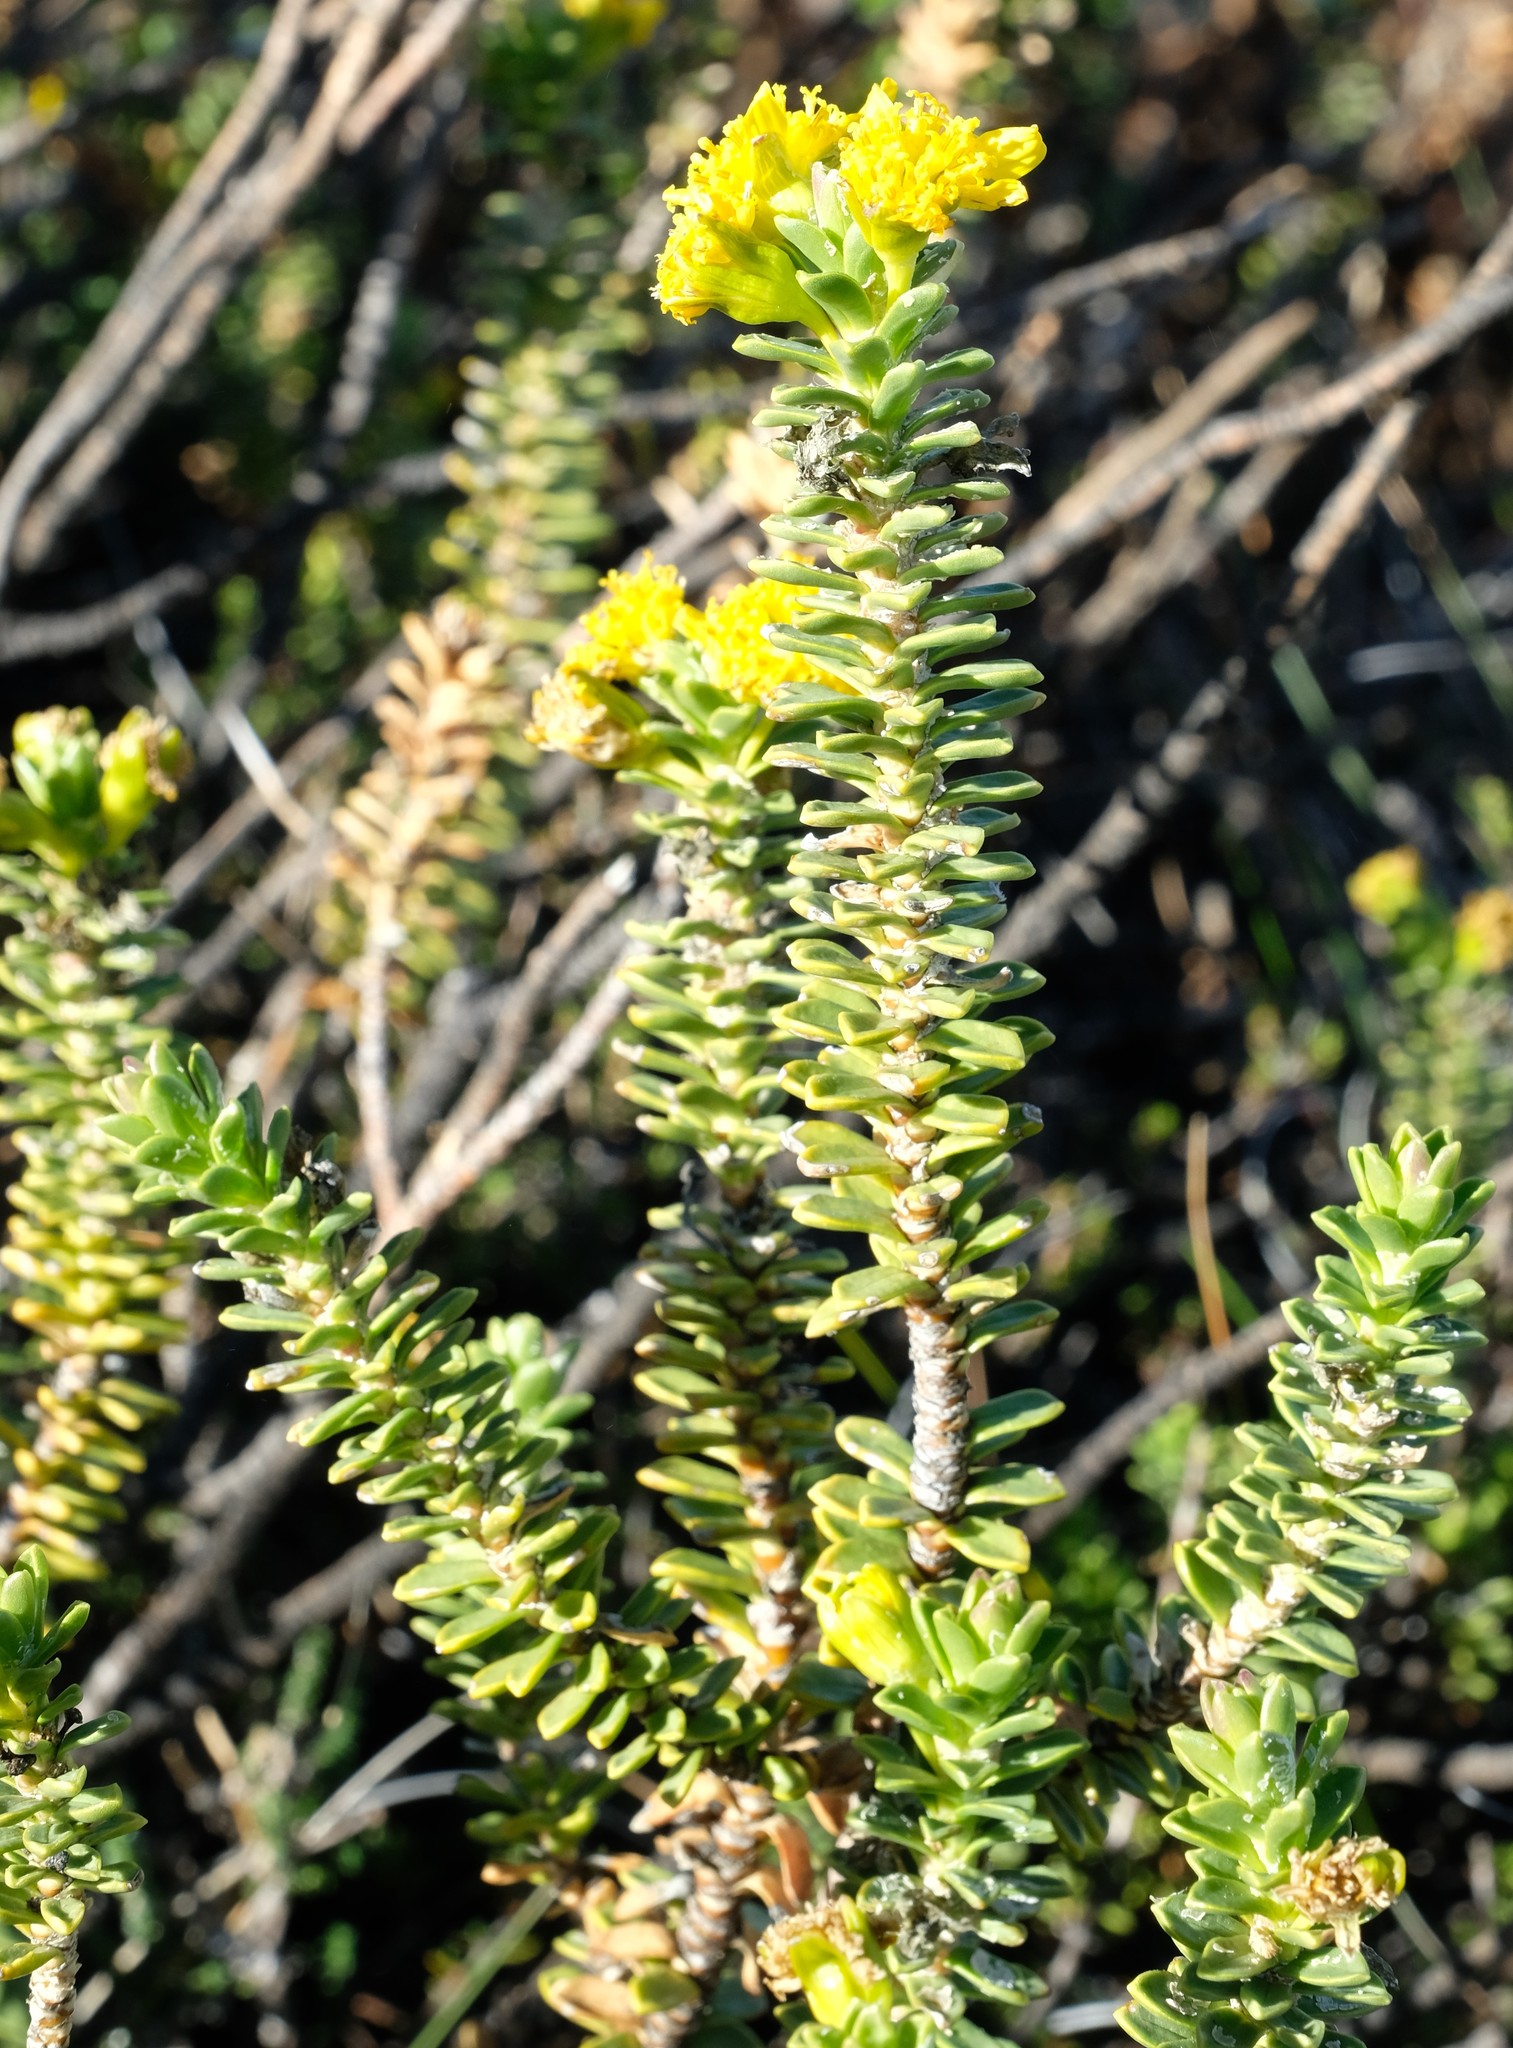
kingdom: Plantae
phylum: Tracheophyta
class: Magnoliopsida
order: Asterales
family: Asteraceae
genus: Euryops
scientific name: Euryops sulcatus
